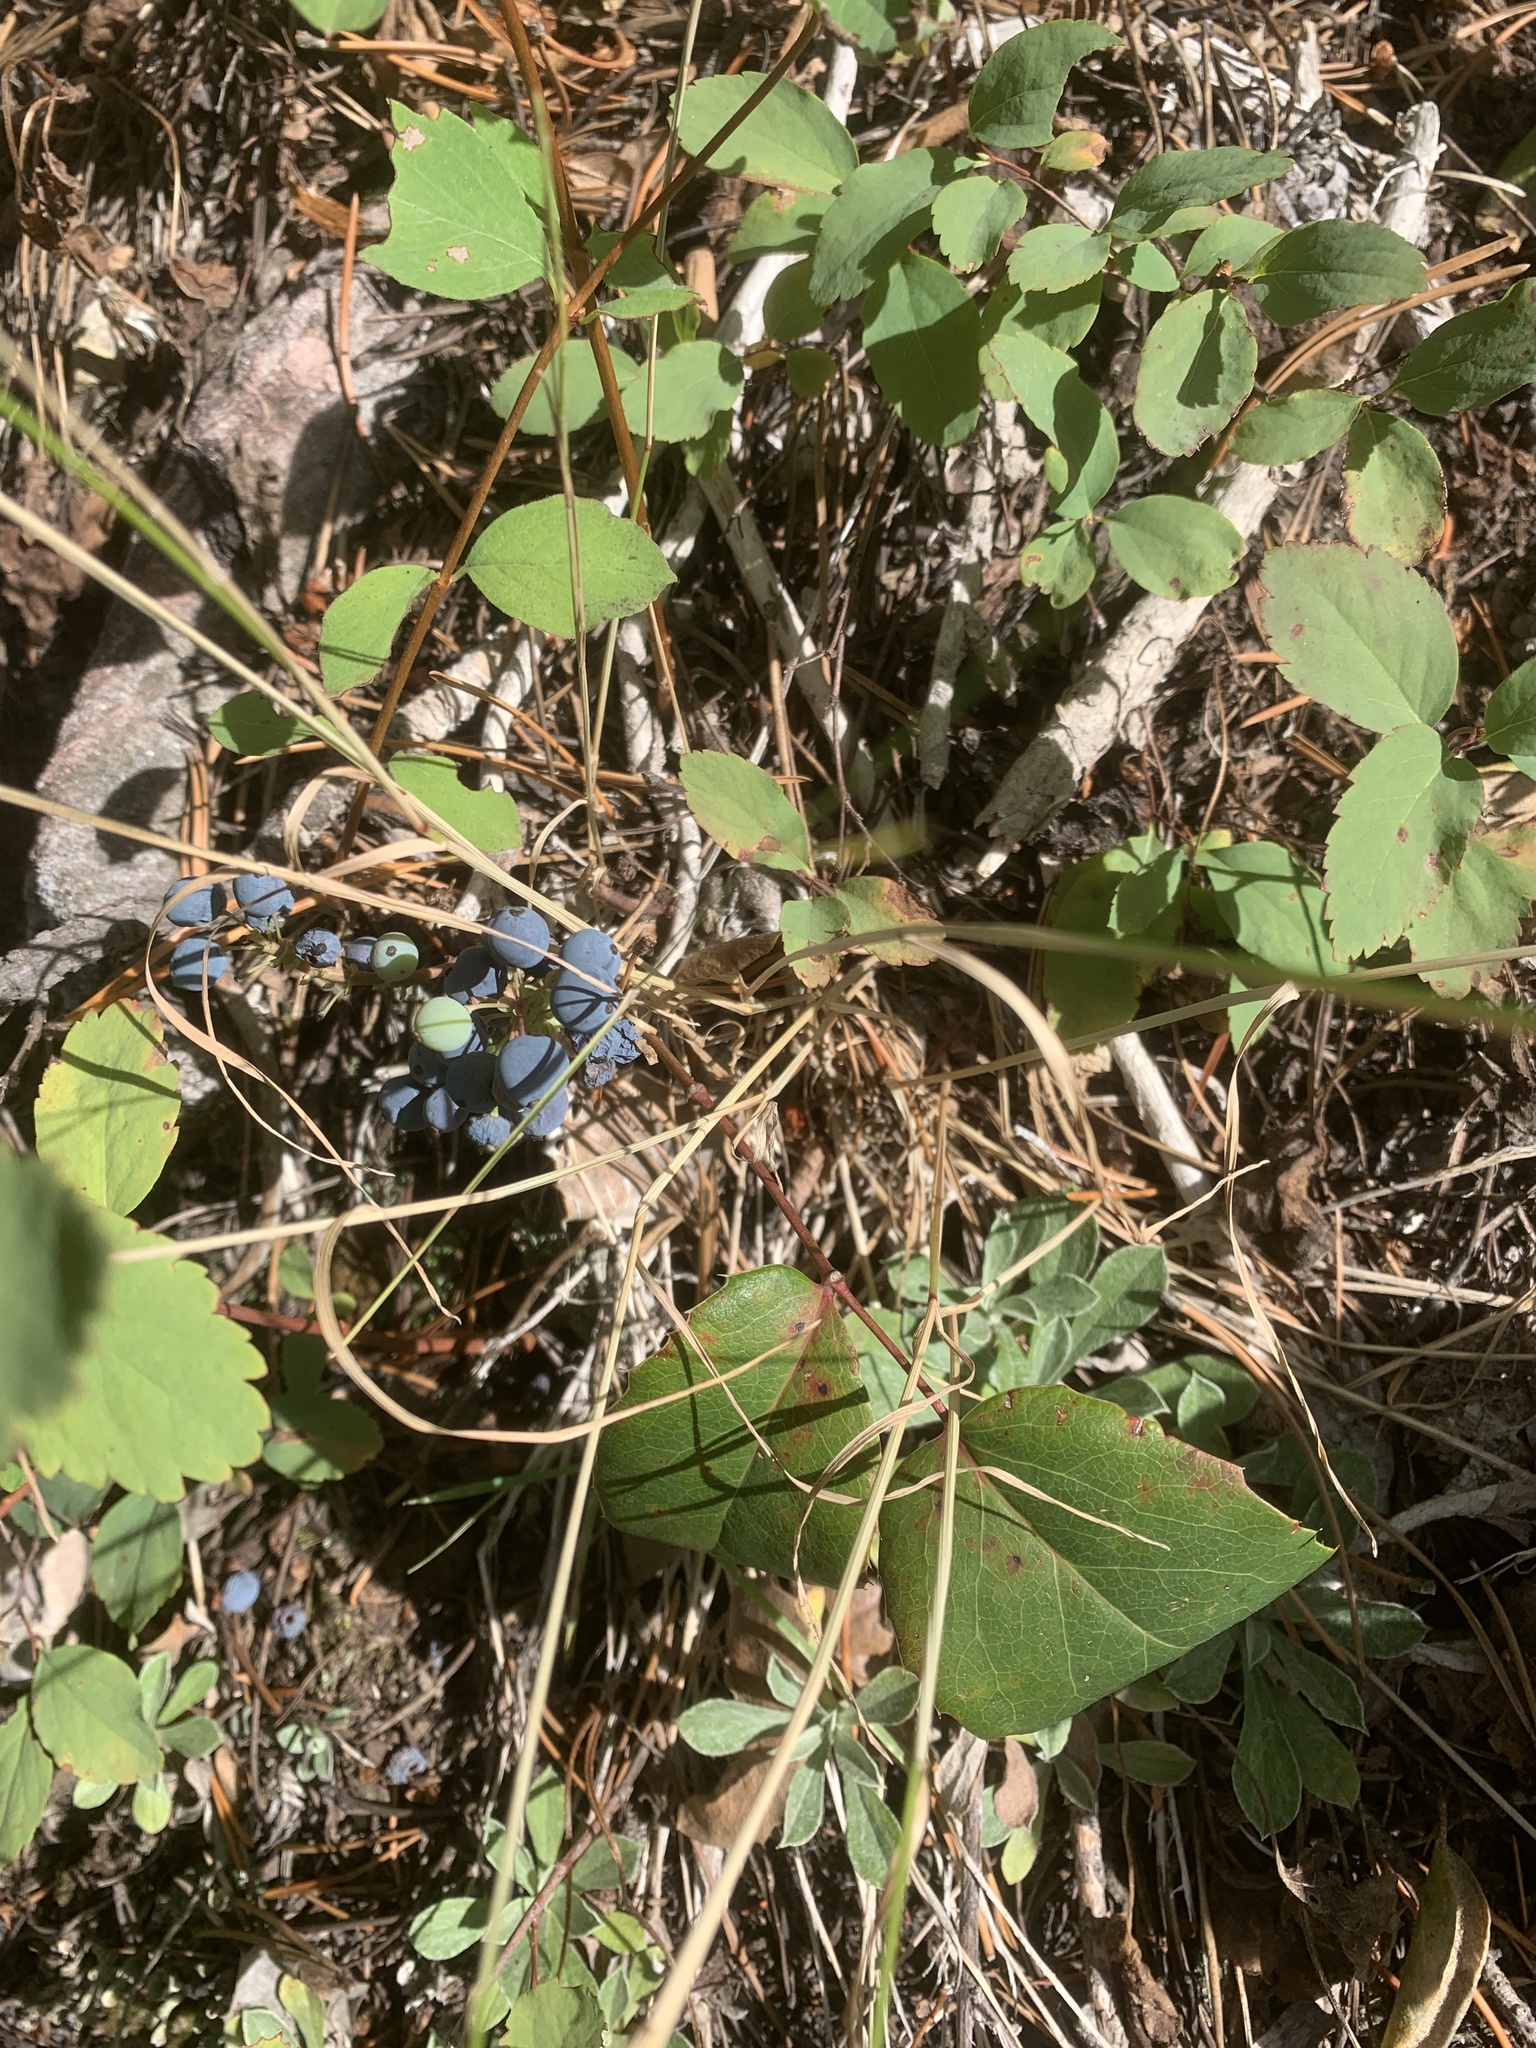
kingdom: Plantae
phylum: Tracheophyta
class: Magnoliopsida
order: Ranunculales
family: Berberidaceae
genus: Mahonia
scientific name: Mahonia repens
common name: Creeping oregon-grape
